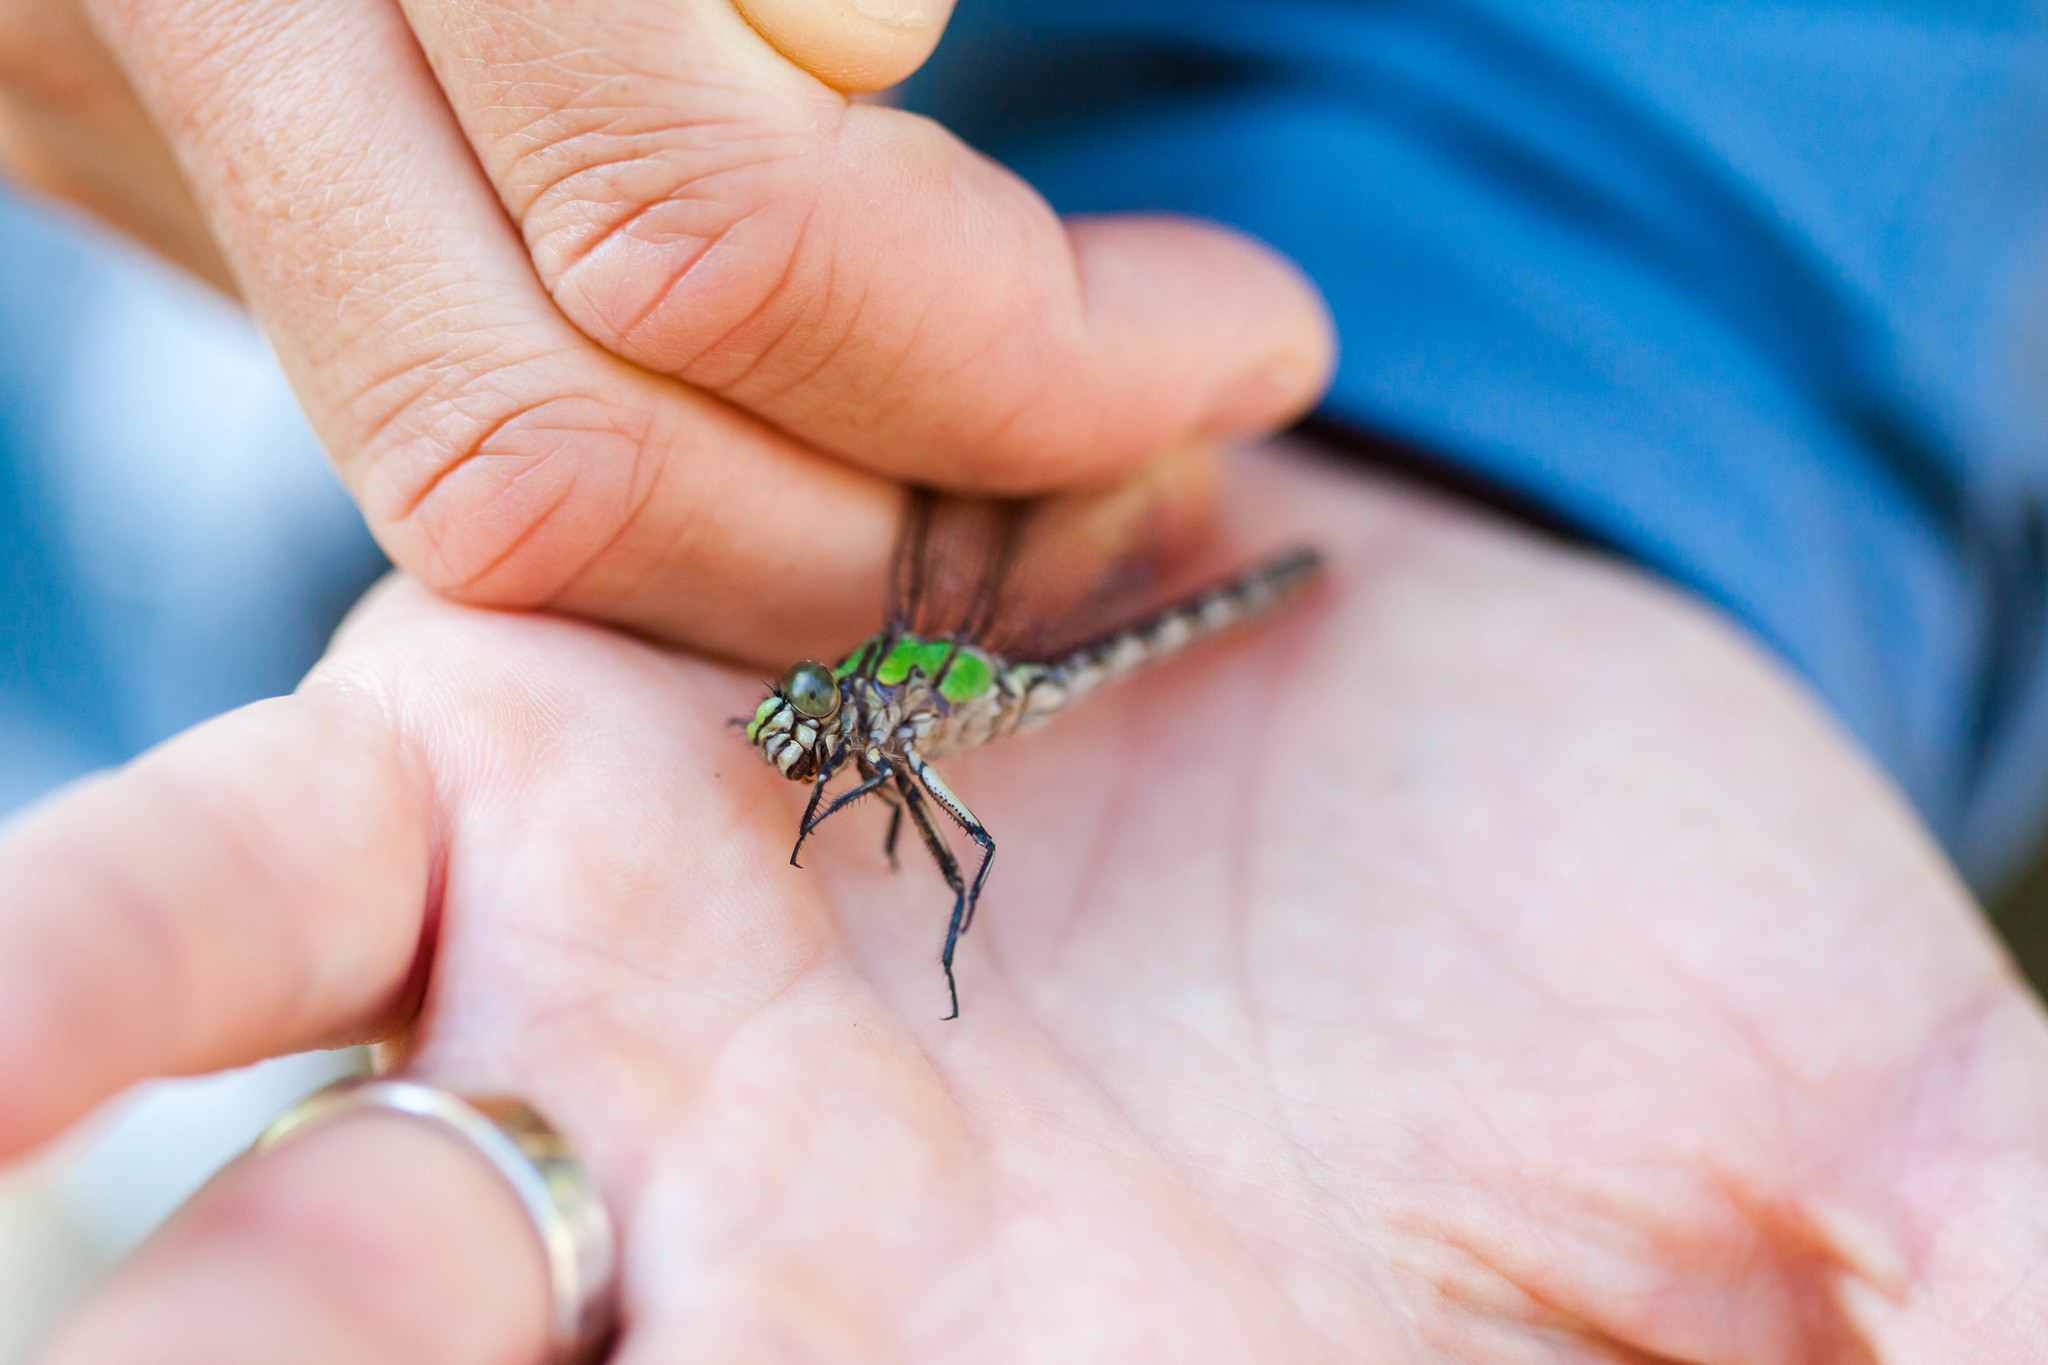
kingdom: Animalia
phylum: Arthropoda
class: Insecta
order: Odonata
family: Gomphidae
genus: Ophiogomphus
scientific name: Ophiogomphus colubrinus
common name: Boreal snaketail
